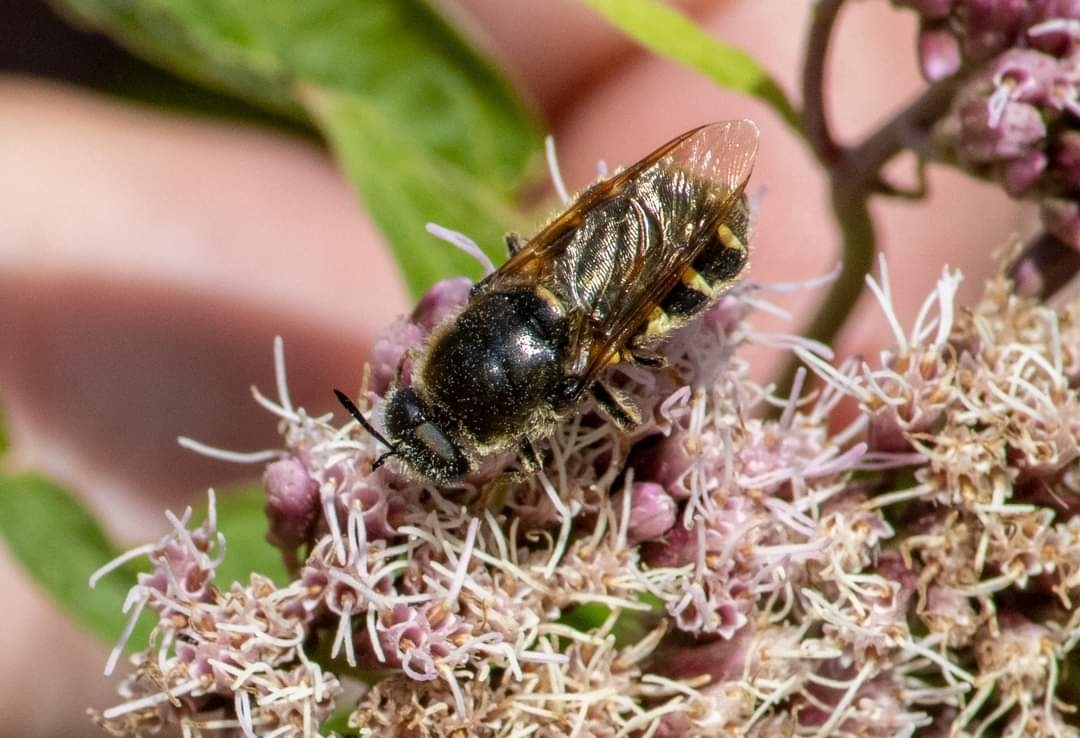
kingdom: Animalia
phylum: Arthropoda
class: Insecta
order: Diptera
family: Stratiomyidae
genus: Stratiomys
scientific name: Stratiomys singularior
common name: Flecked general
